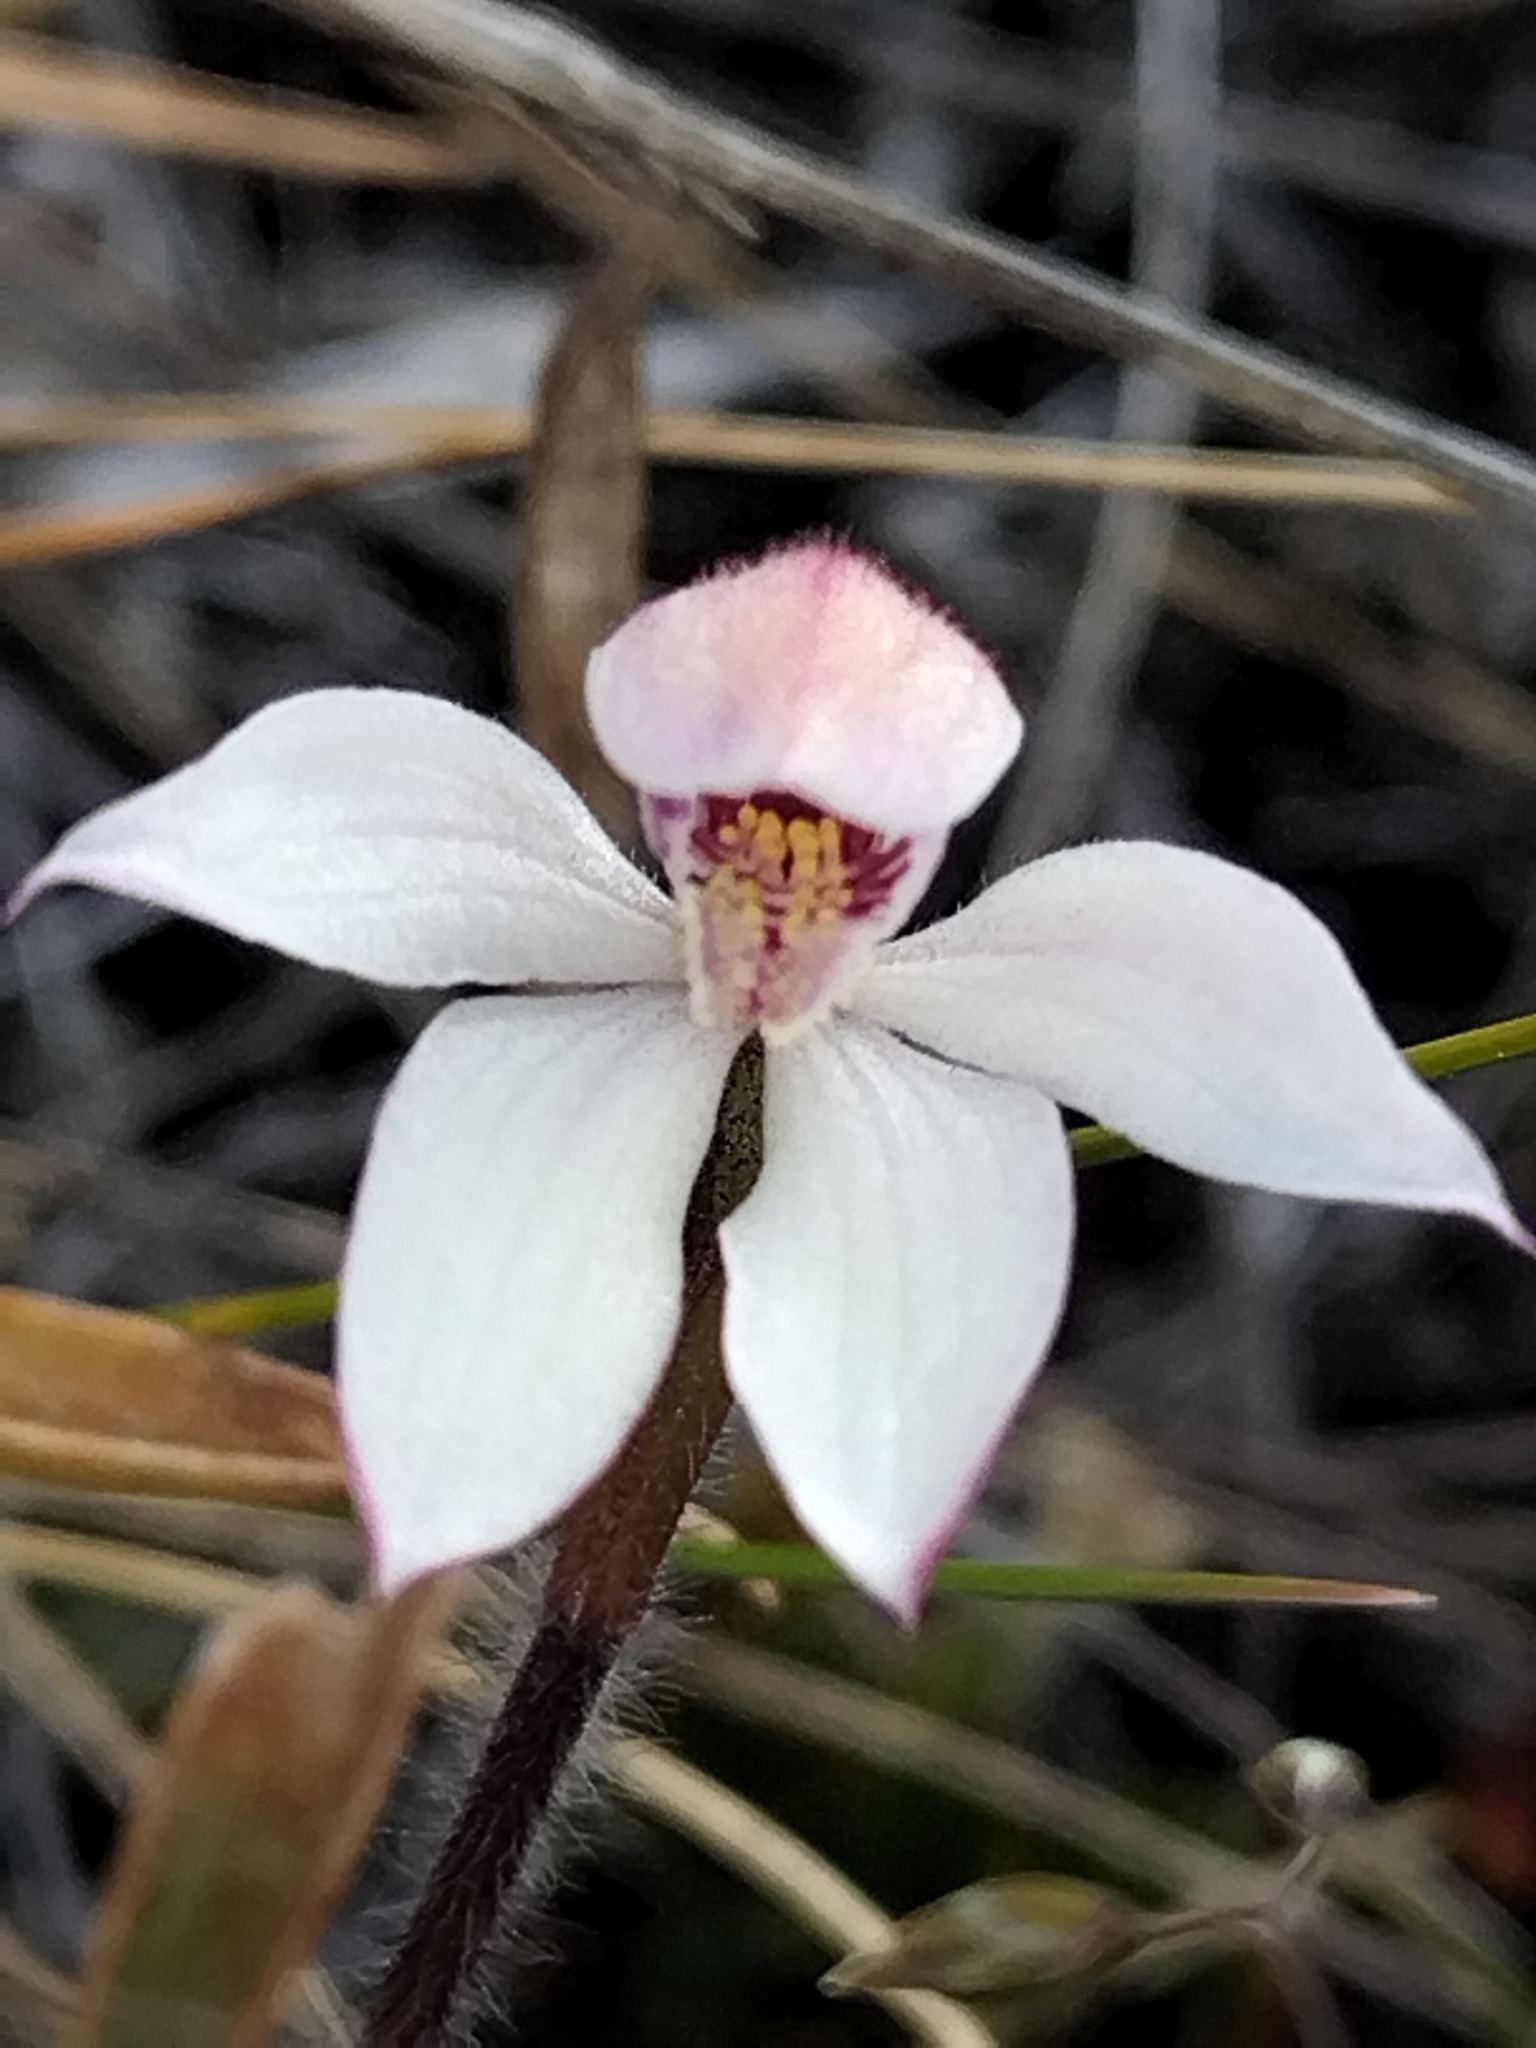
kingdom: Plantae
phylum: Tracheophyta
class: Liliopsida
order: Asparagales
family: Orchidaceae
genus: Caladenia
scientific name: Caladenia lyallii
